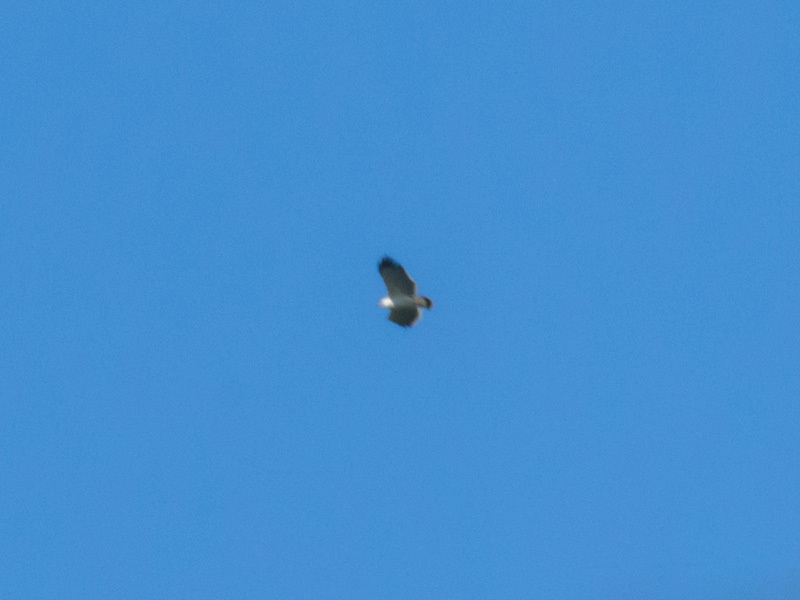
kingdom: Animalia
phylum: Chordata
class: Aves
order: Accipitriformes
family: Accipitridae
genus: Leucopternis
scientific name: Leucopternis albicollis
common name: White hawk
